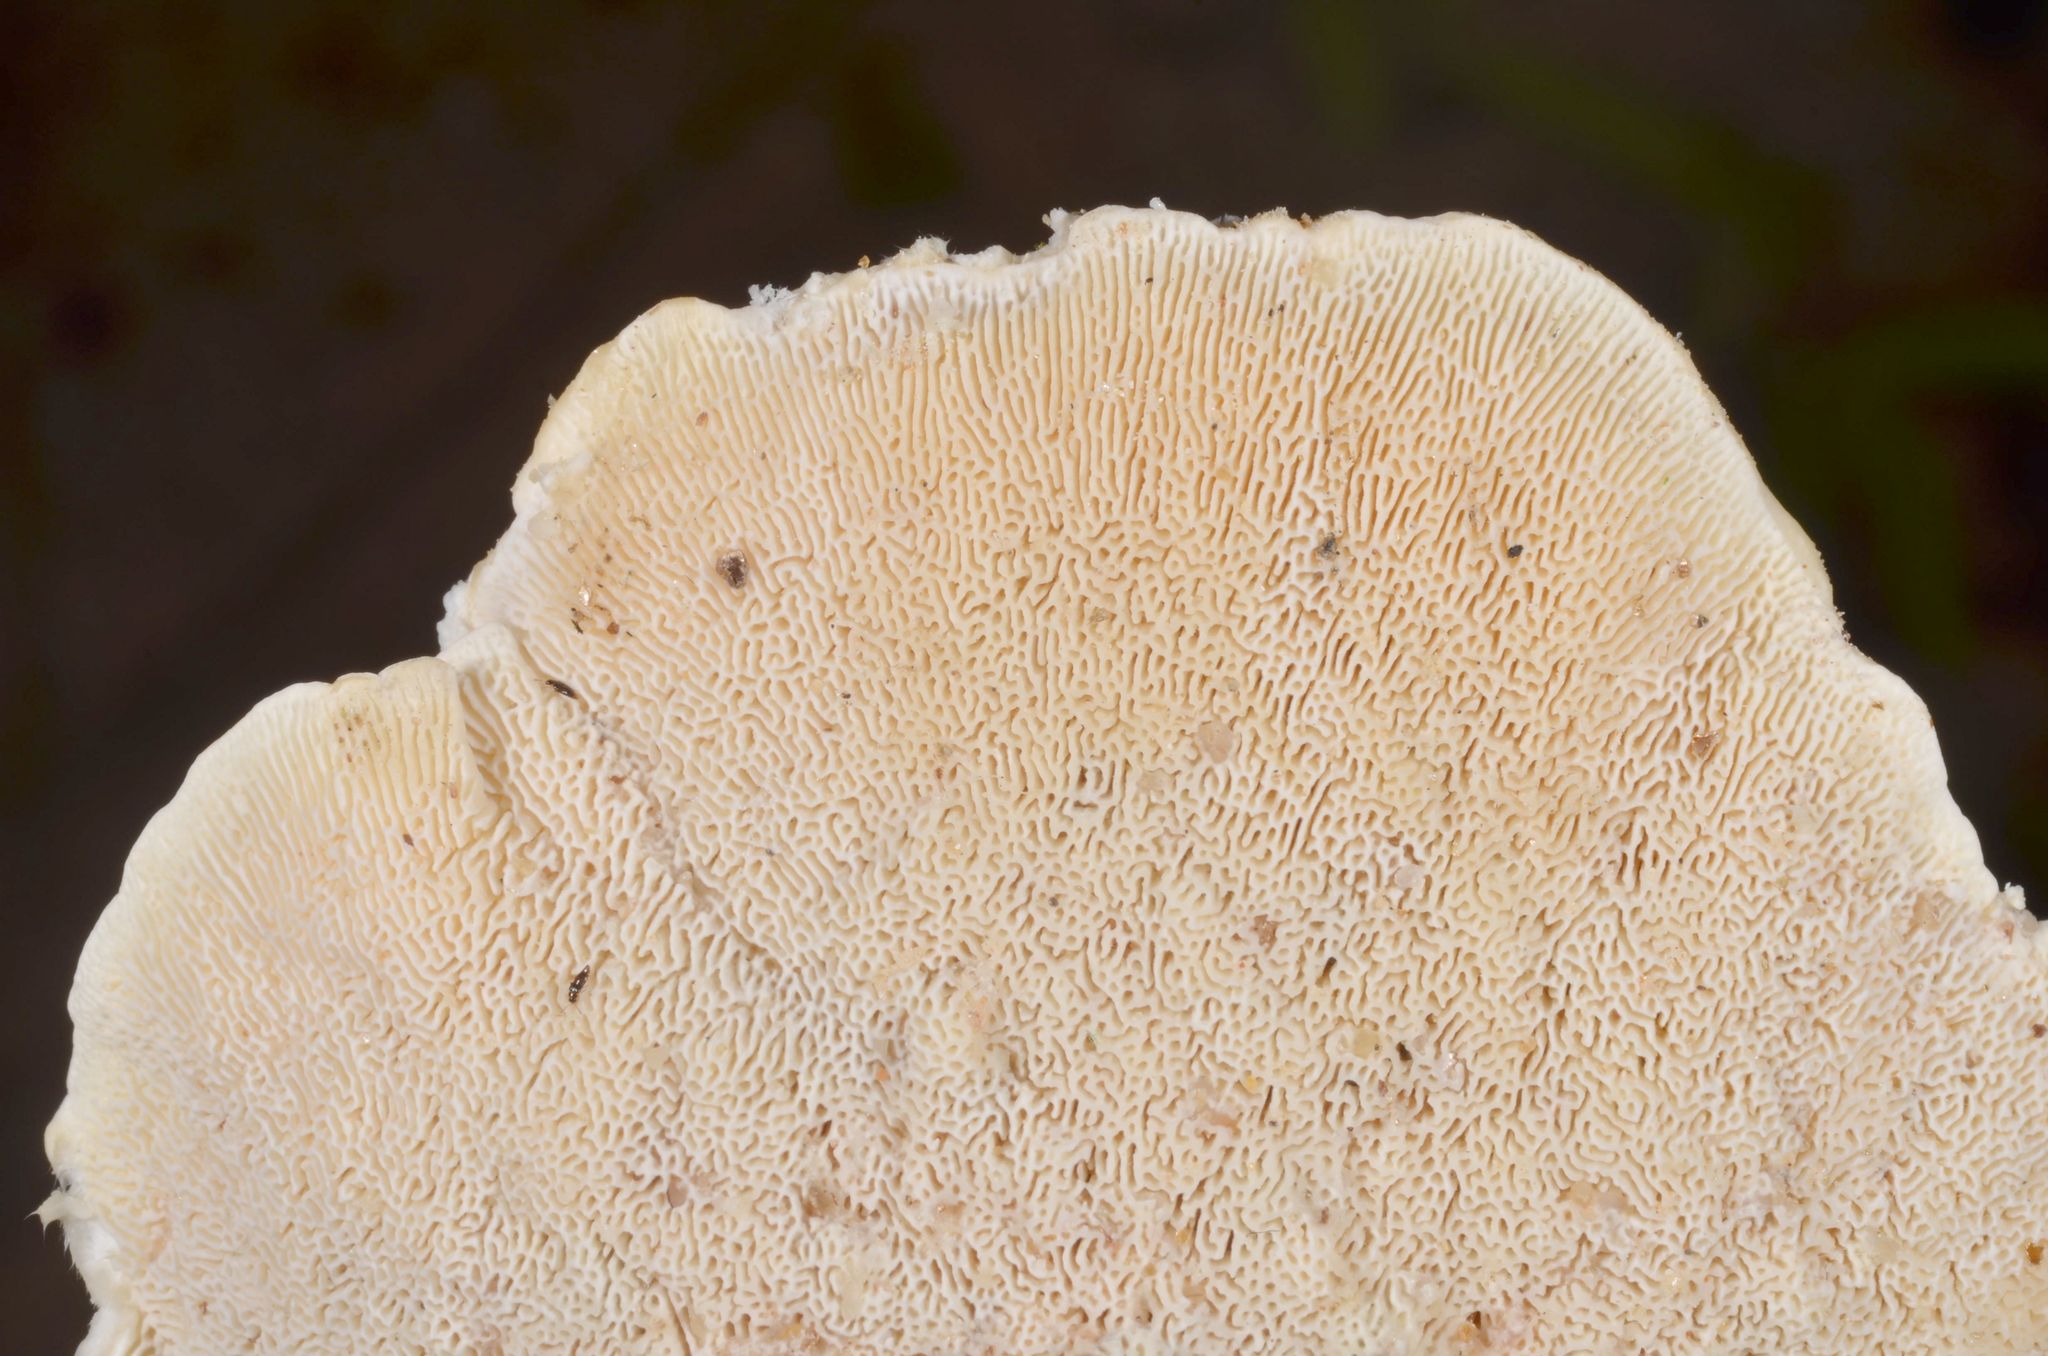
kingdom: Fungi
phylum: Basidiomycota
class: Agaricomycetes
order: Polyporales
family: Polyporaceae
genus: Trametes
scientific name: Trametes elegans
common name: White maze polypore
